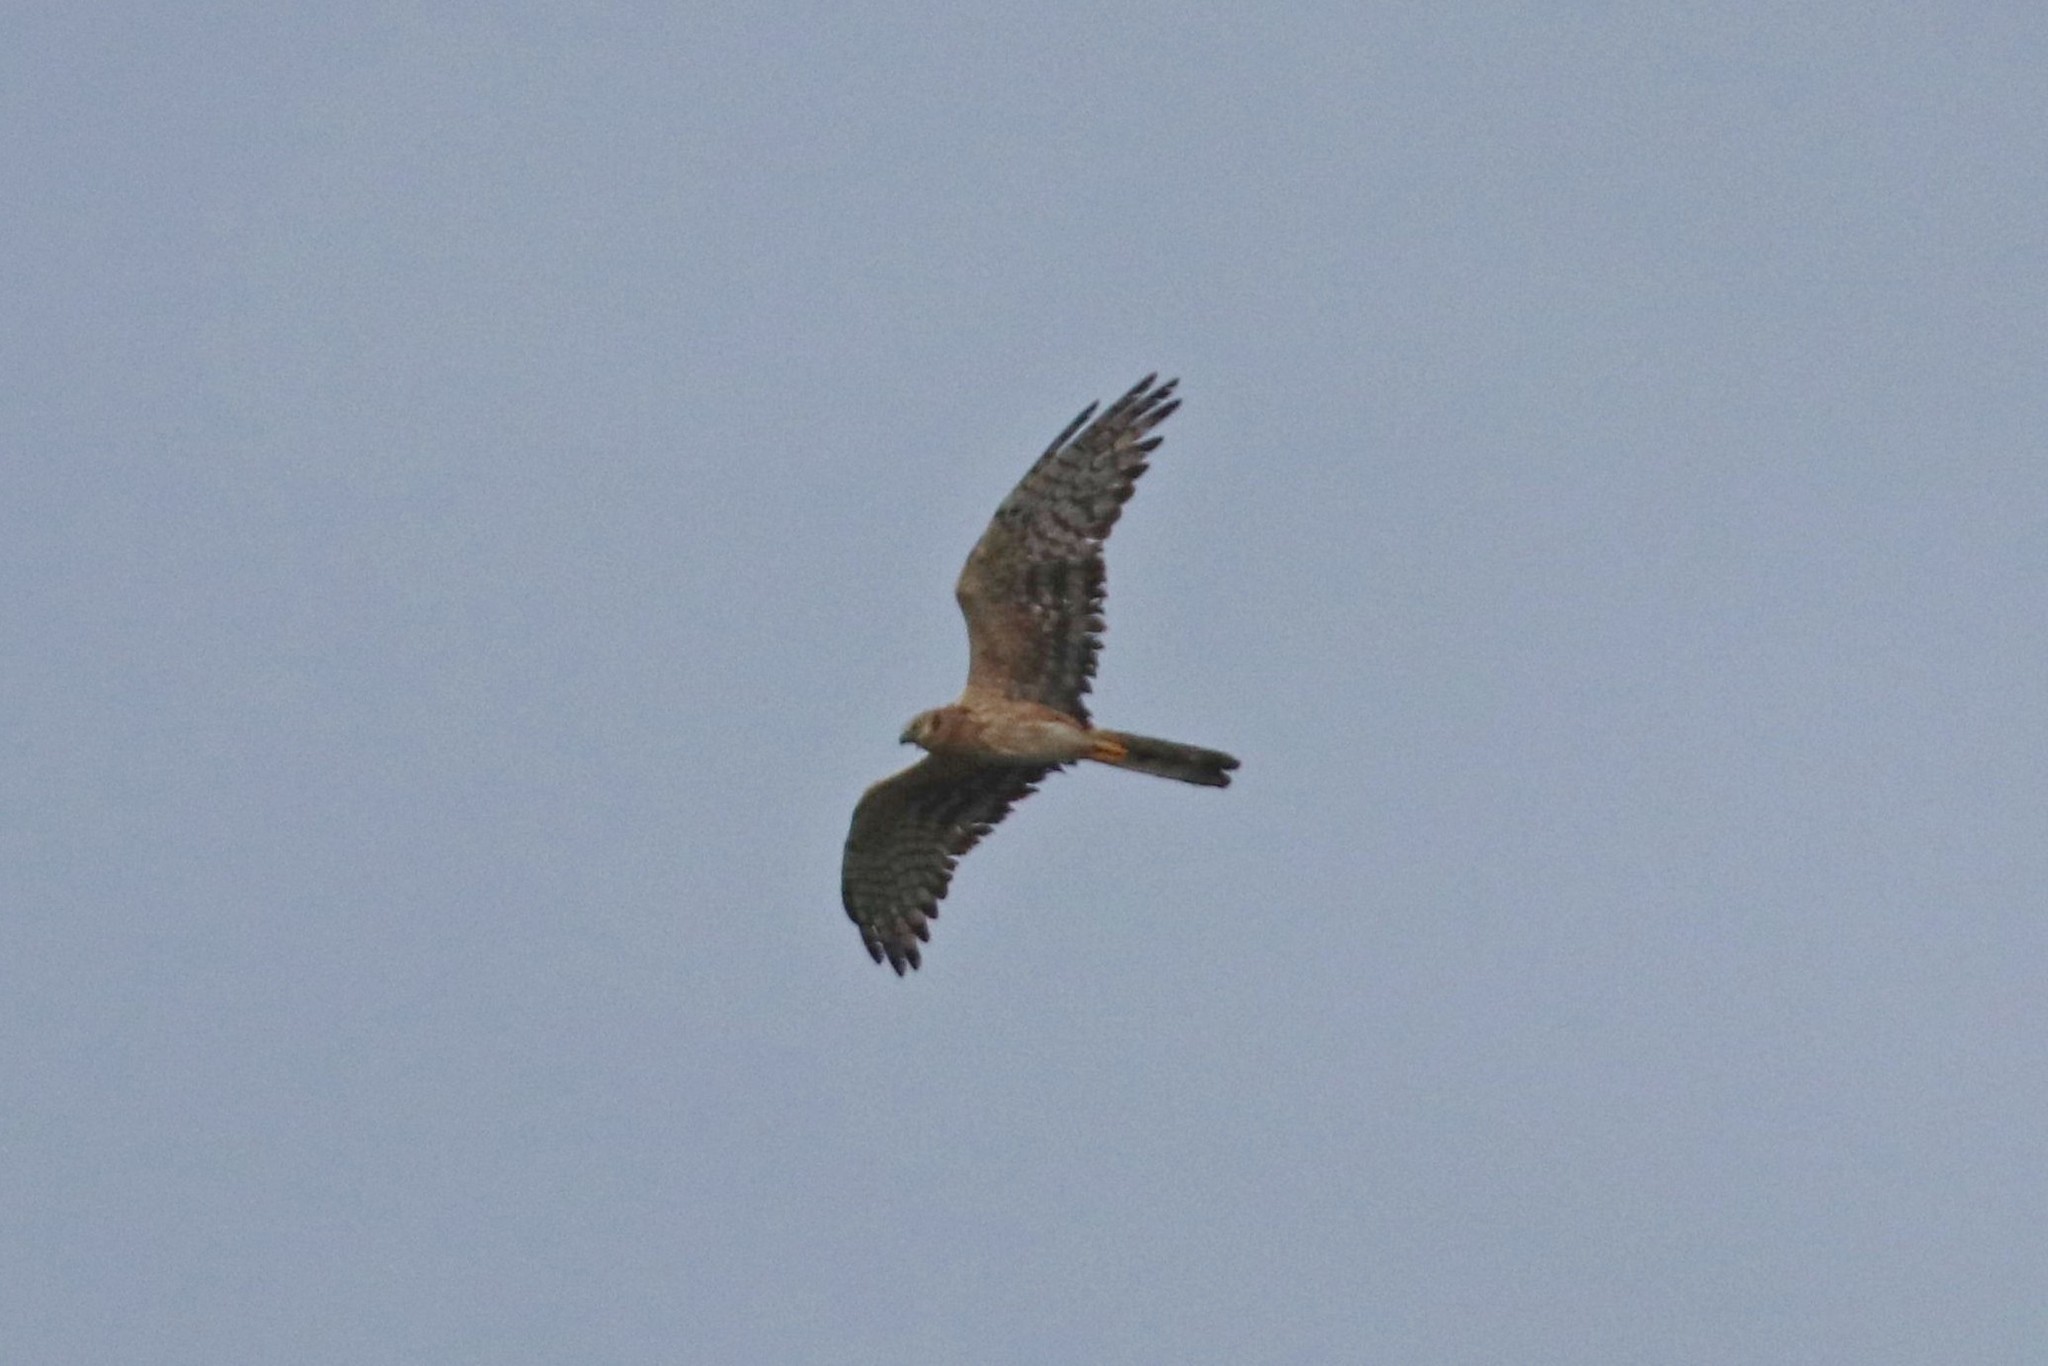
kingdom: Animalia
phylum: Chordata
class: Aves
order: Accipitriformes
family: Accipitridae
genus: Circus
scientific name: Circus cyaneus
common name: Hen harrier
